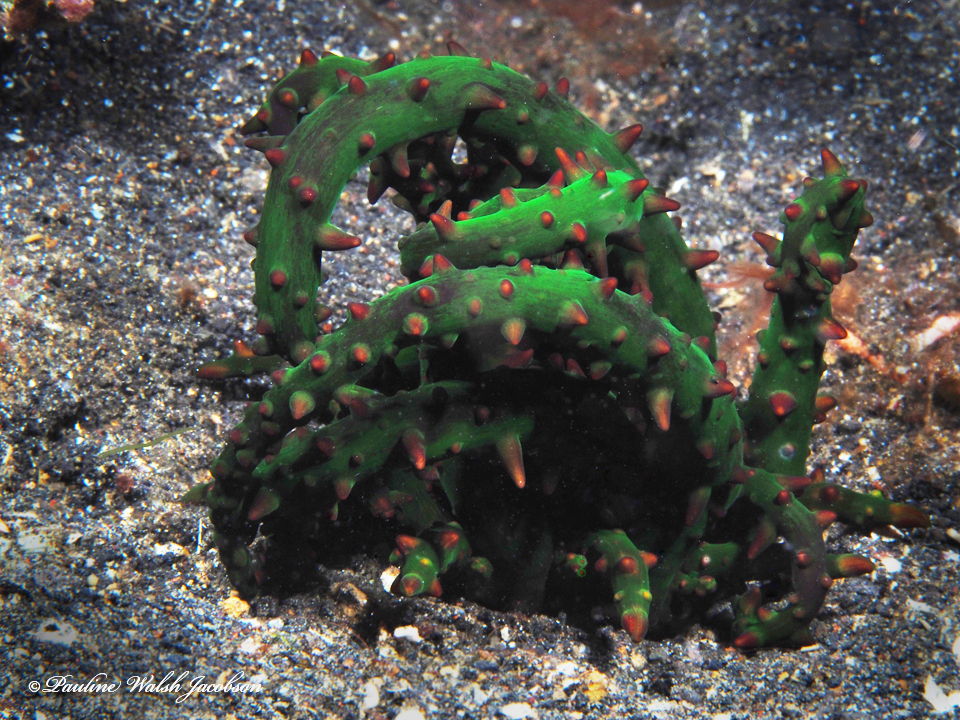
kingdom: Animalia
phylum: Cnidaria
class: Anthozoa
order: Actiniaria
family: Actinodendridae
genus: Actinostephanus
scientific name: Actinostephanus haeckeli
